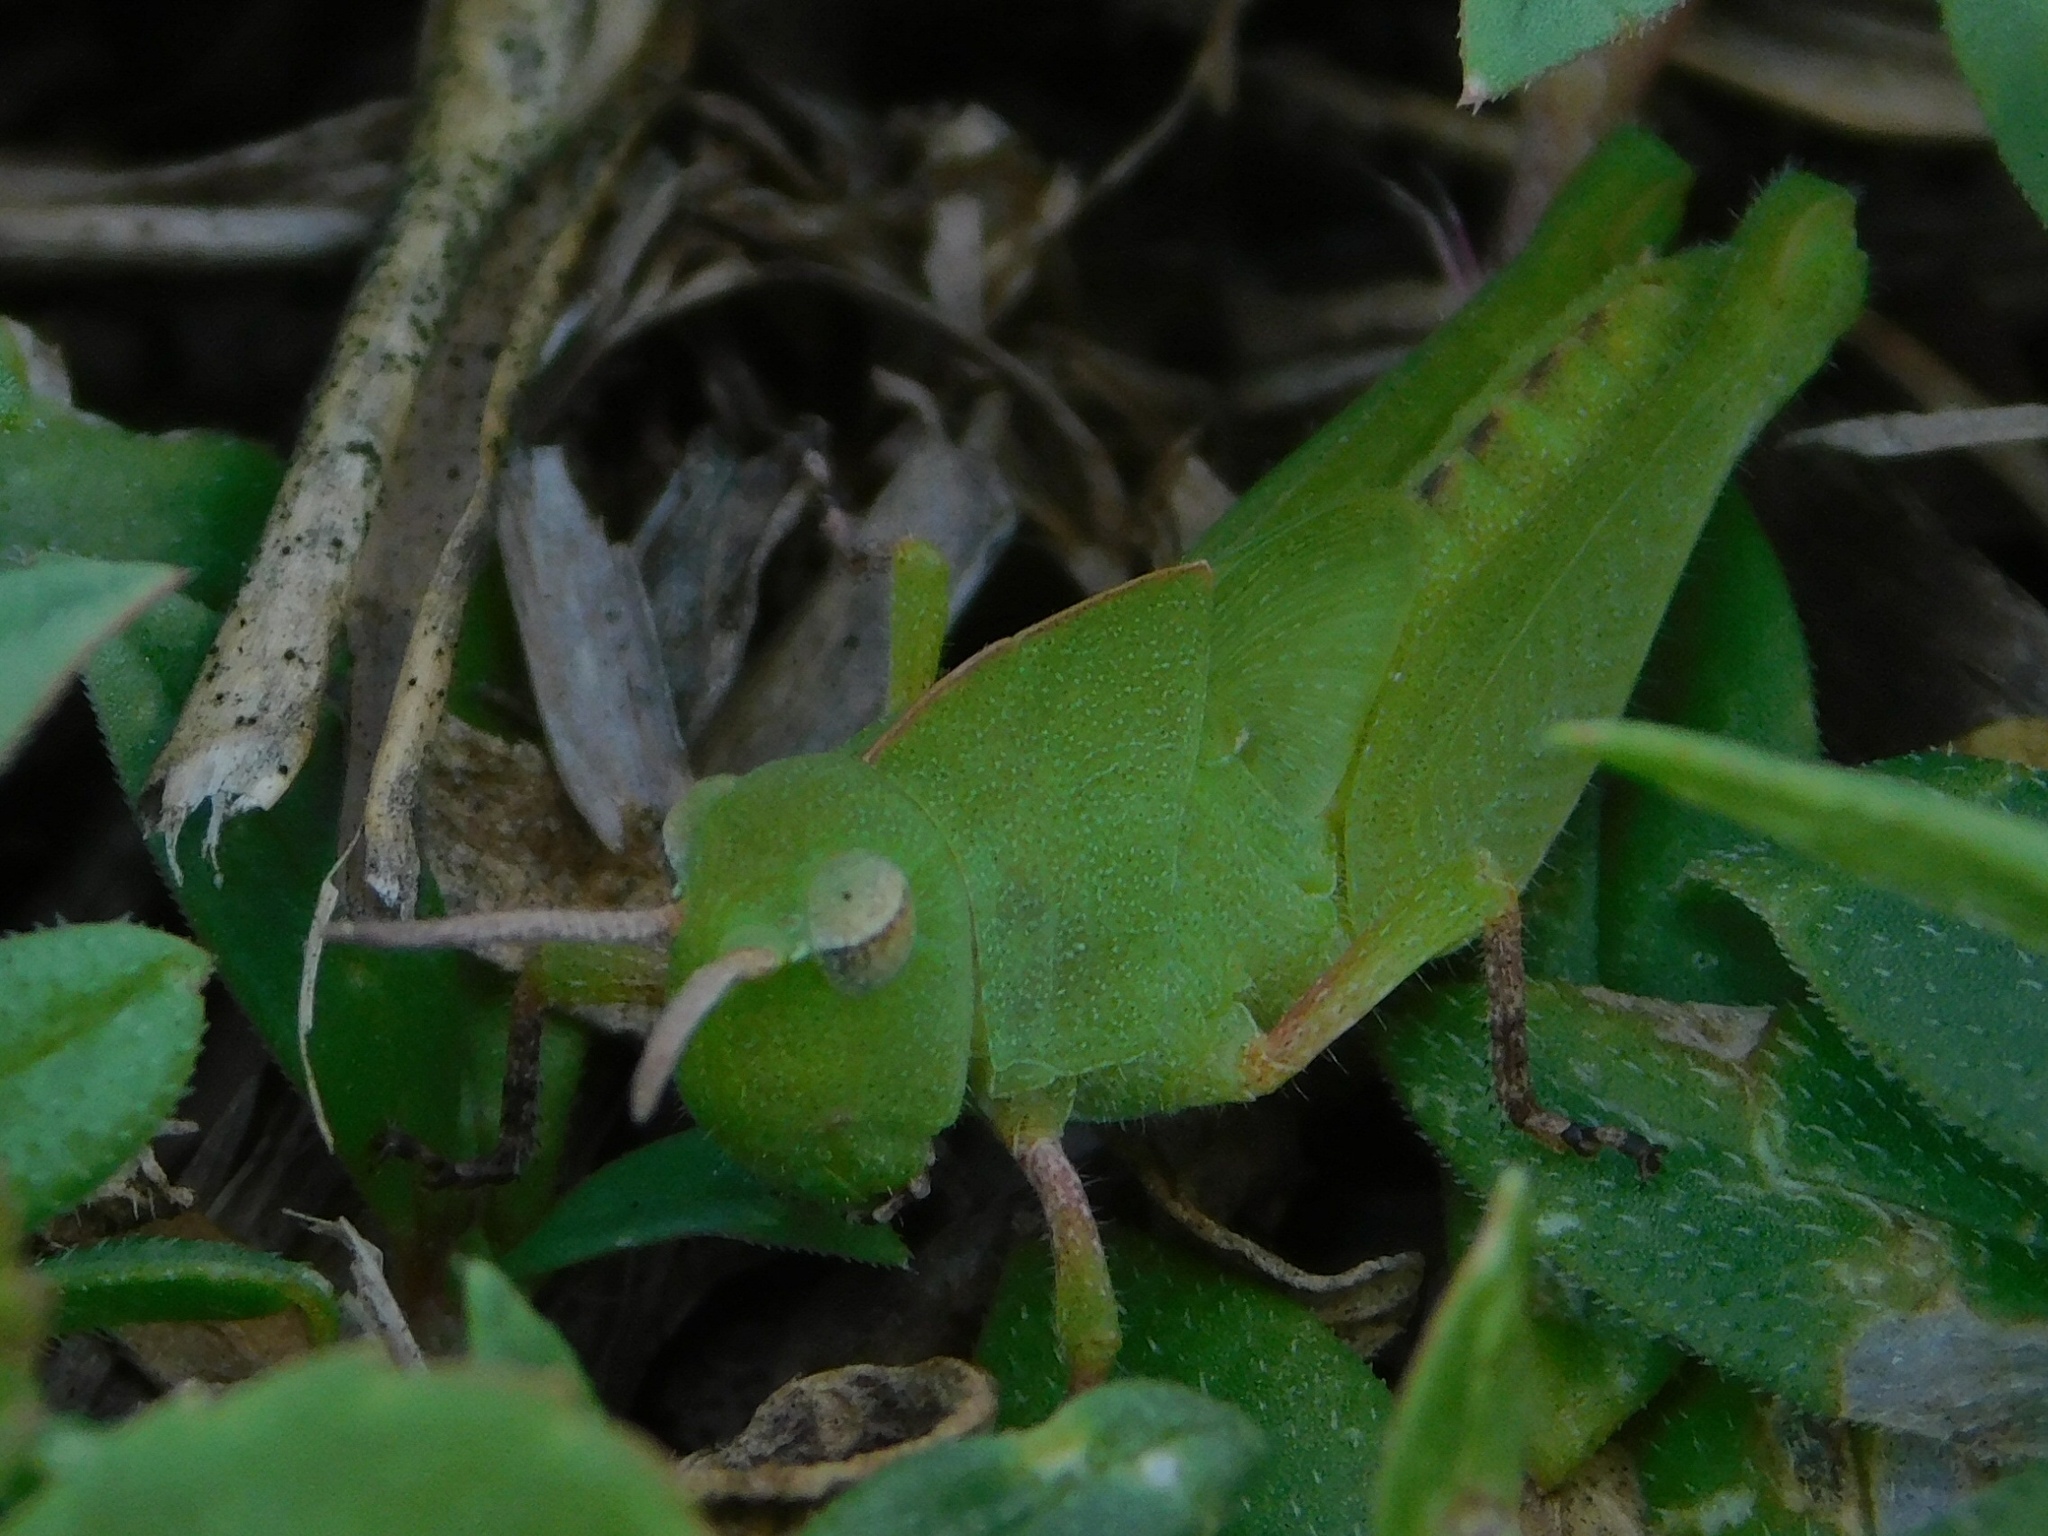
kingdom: Animalia
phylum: Arthropoda
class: Insecta
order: Orthoptera
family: Acrididae
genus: Chortophaga
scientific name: Chortophaga australior
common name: Southern green-striped grasshopper
